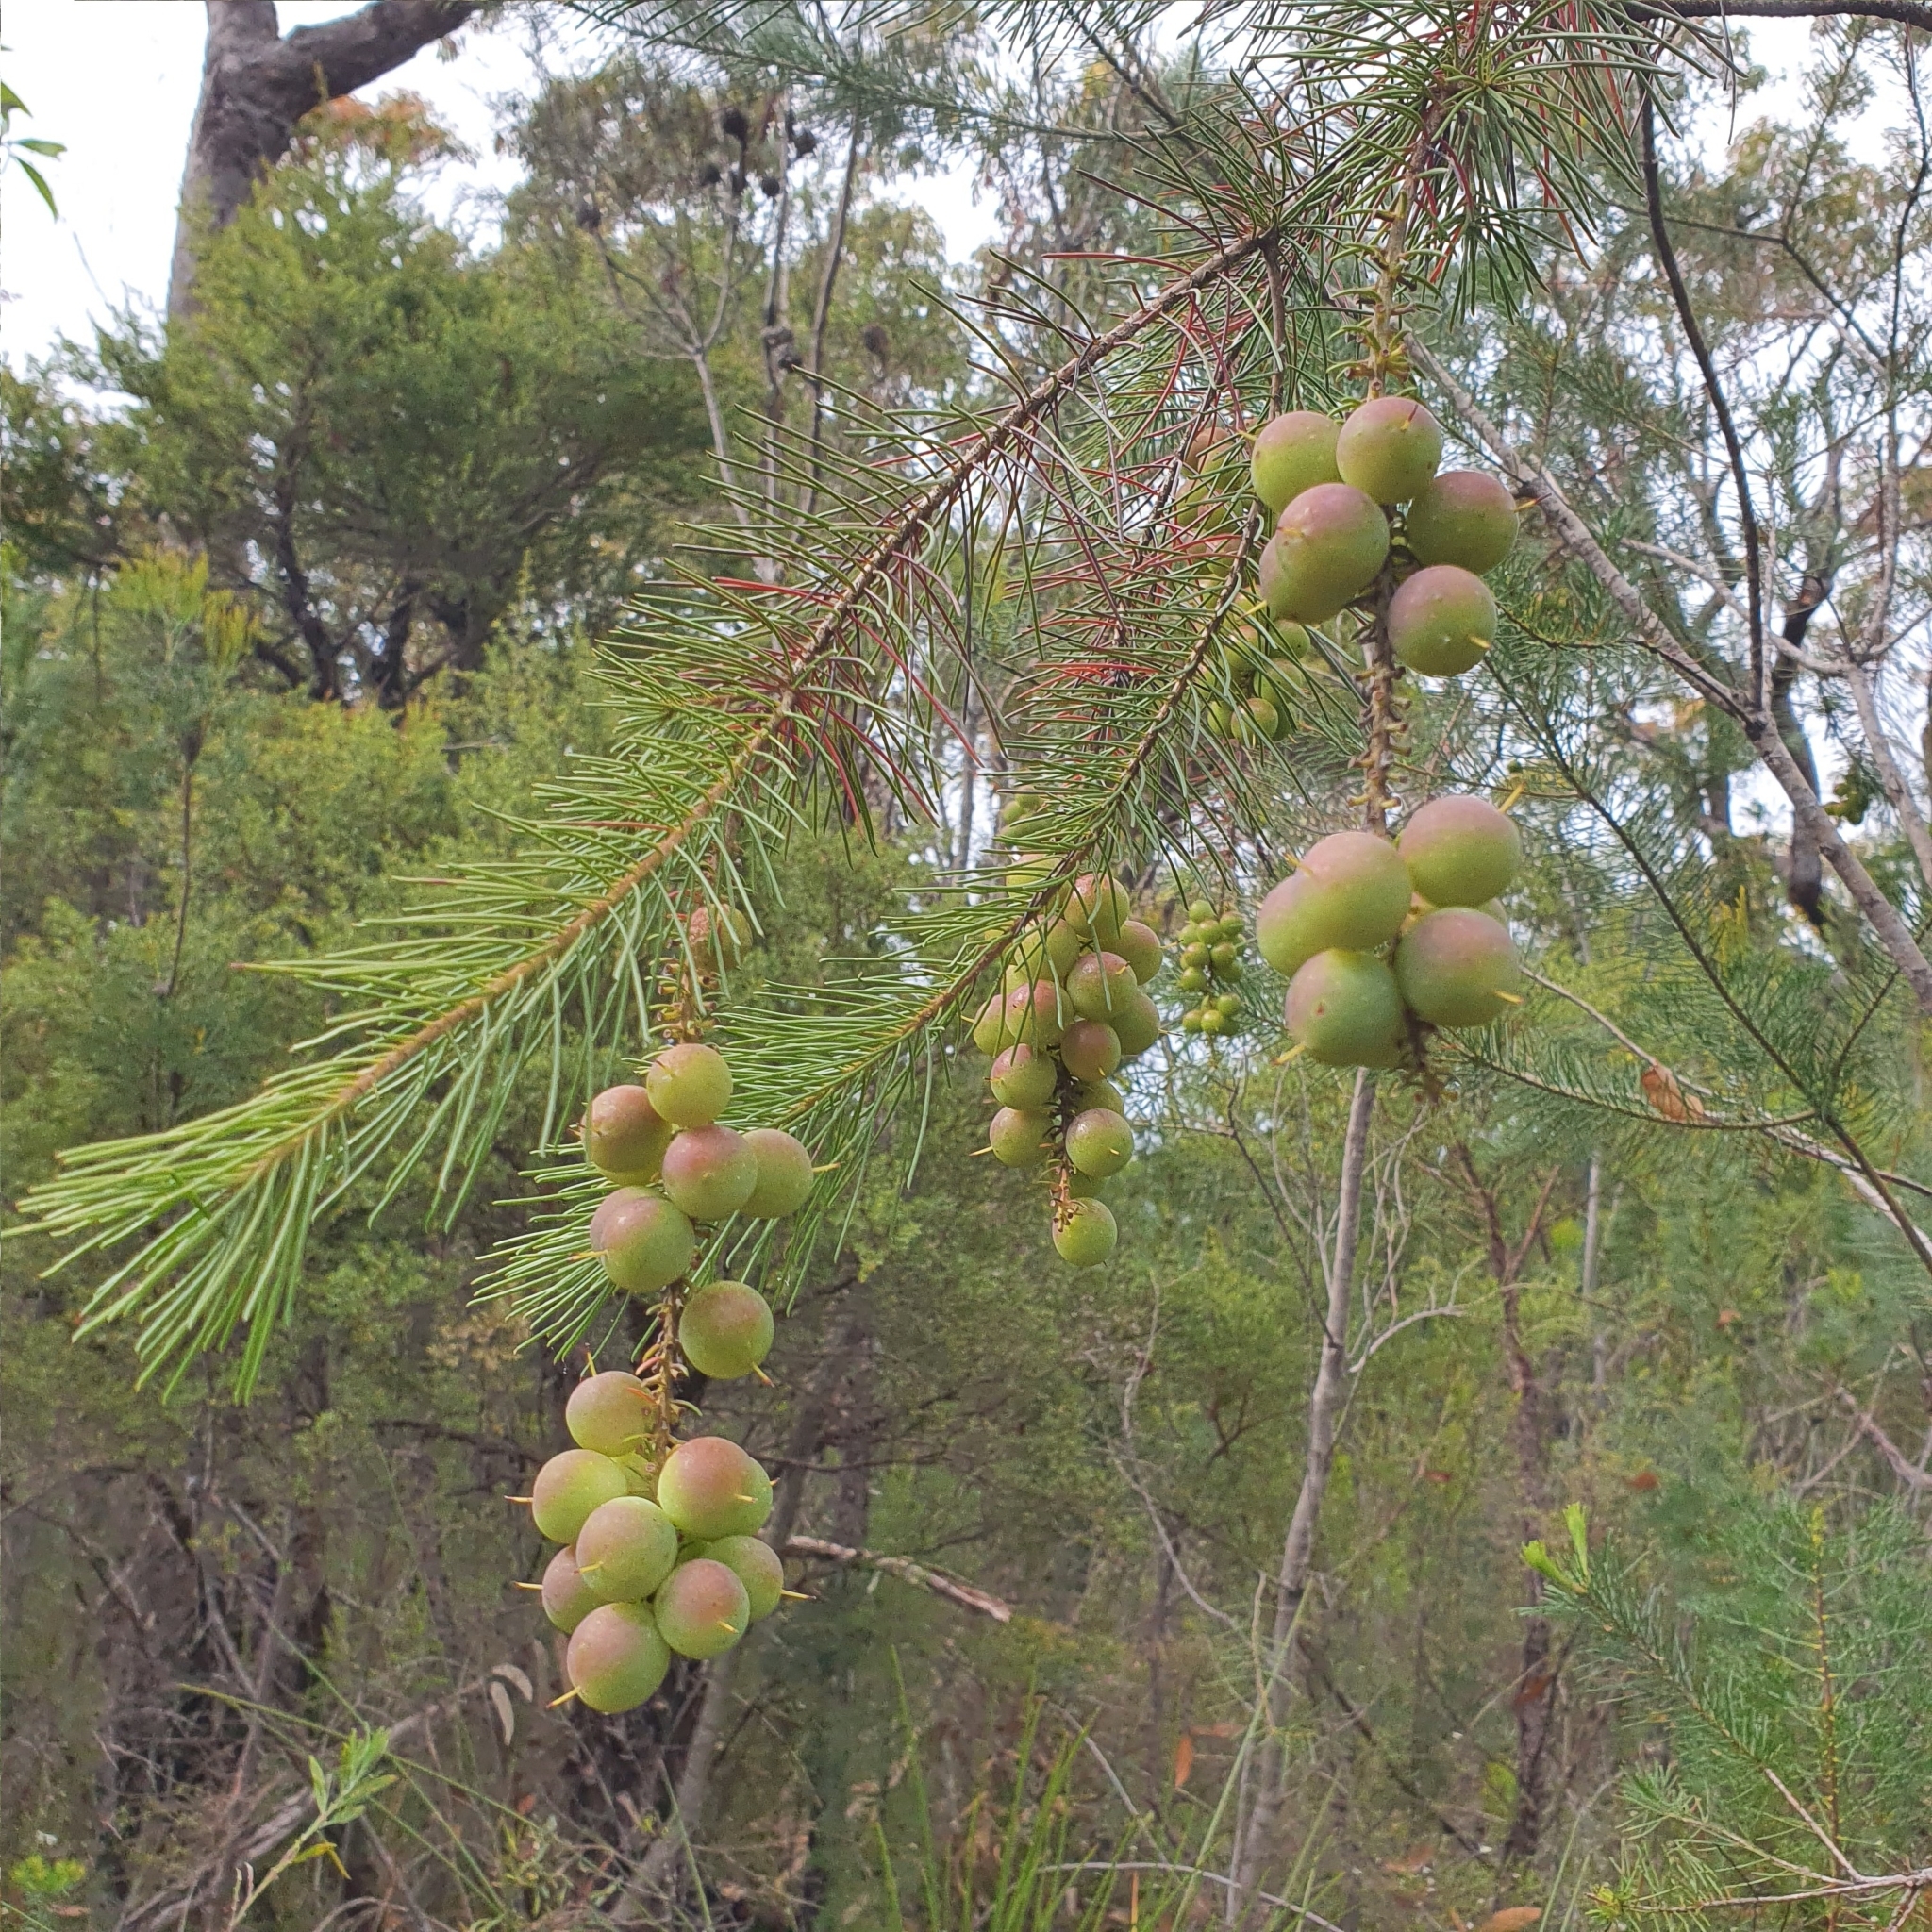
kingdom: Plantae
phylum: Tracheophyta
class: Magnoliopsida
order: Proteales
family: Proteaceae
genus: Persoonia
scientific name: Persoonia pinifolia
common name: Pine-leaf geebung
